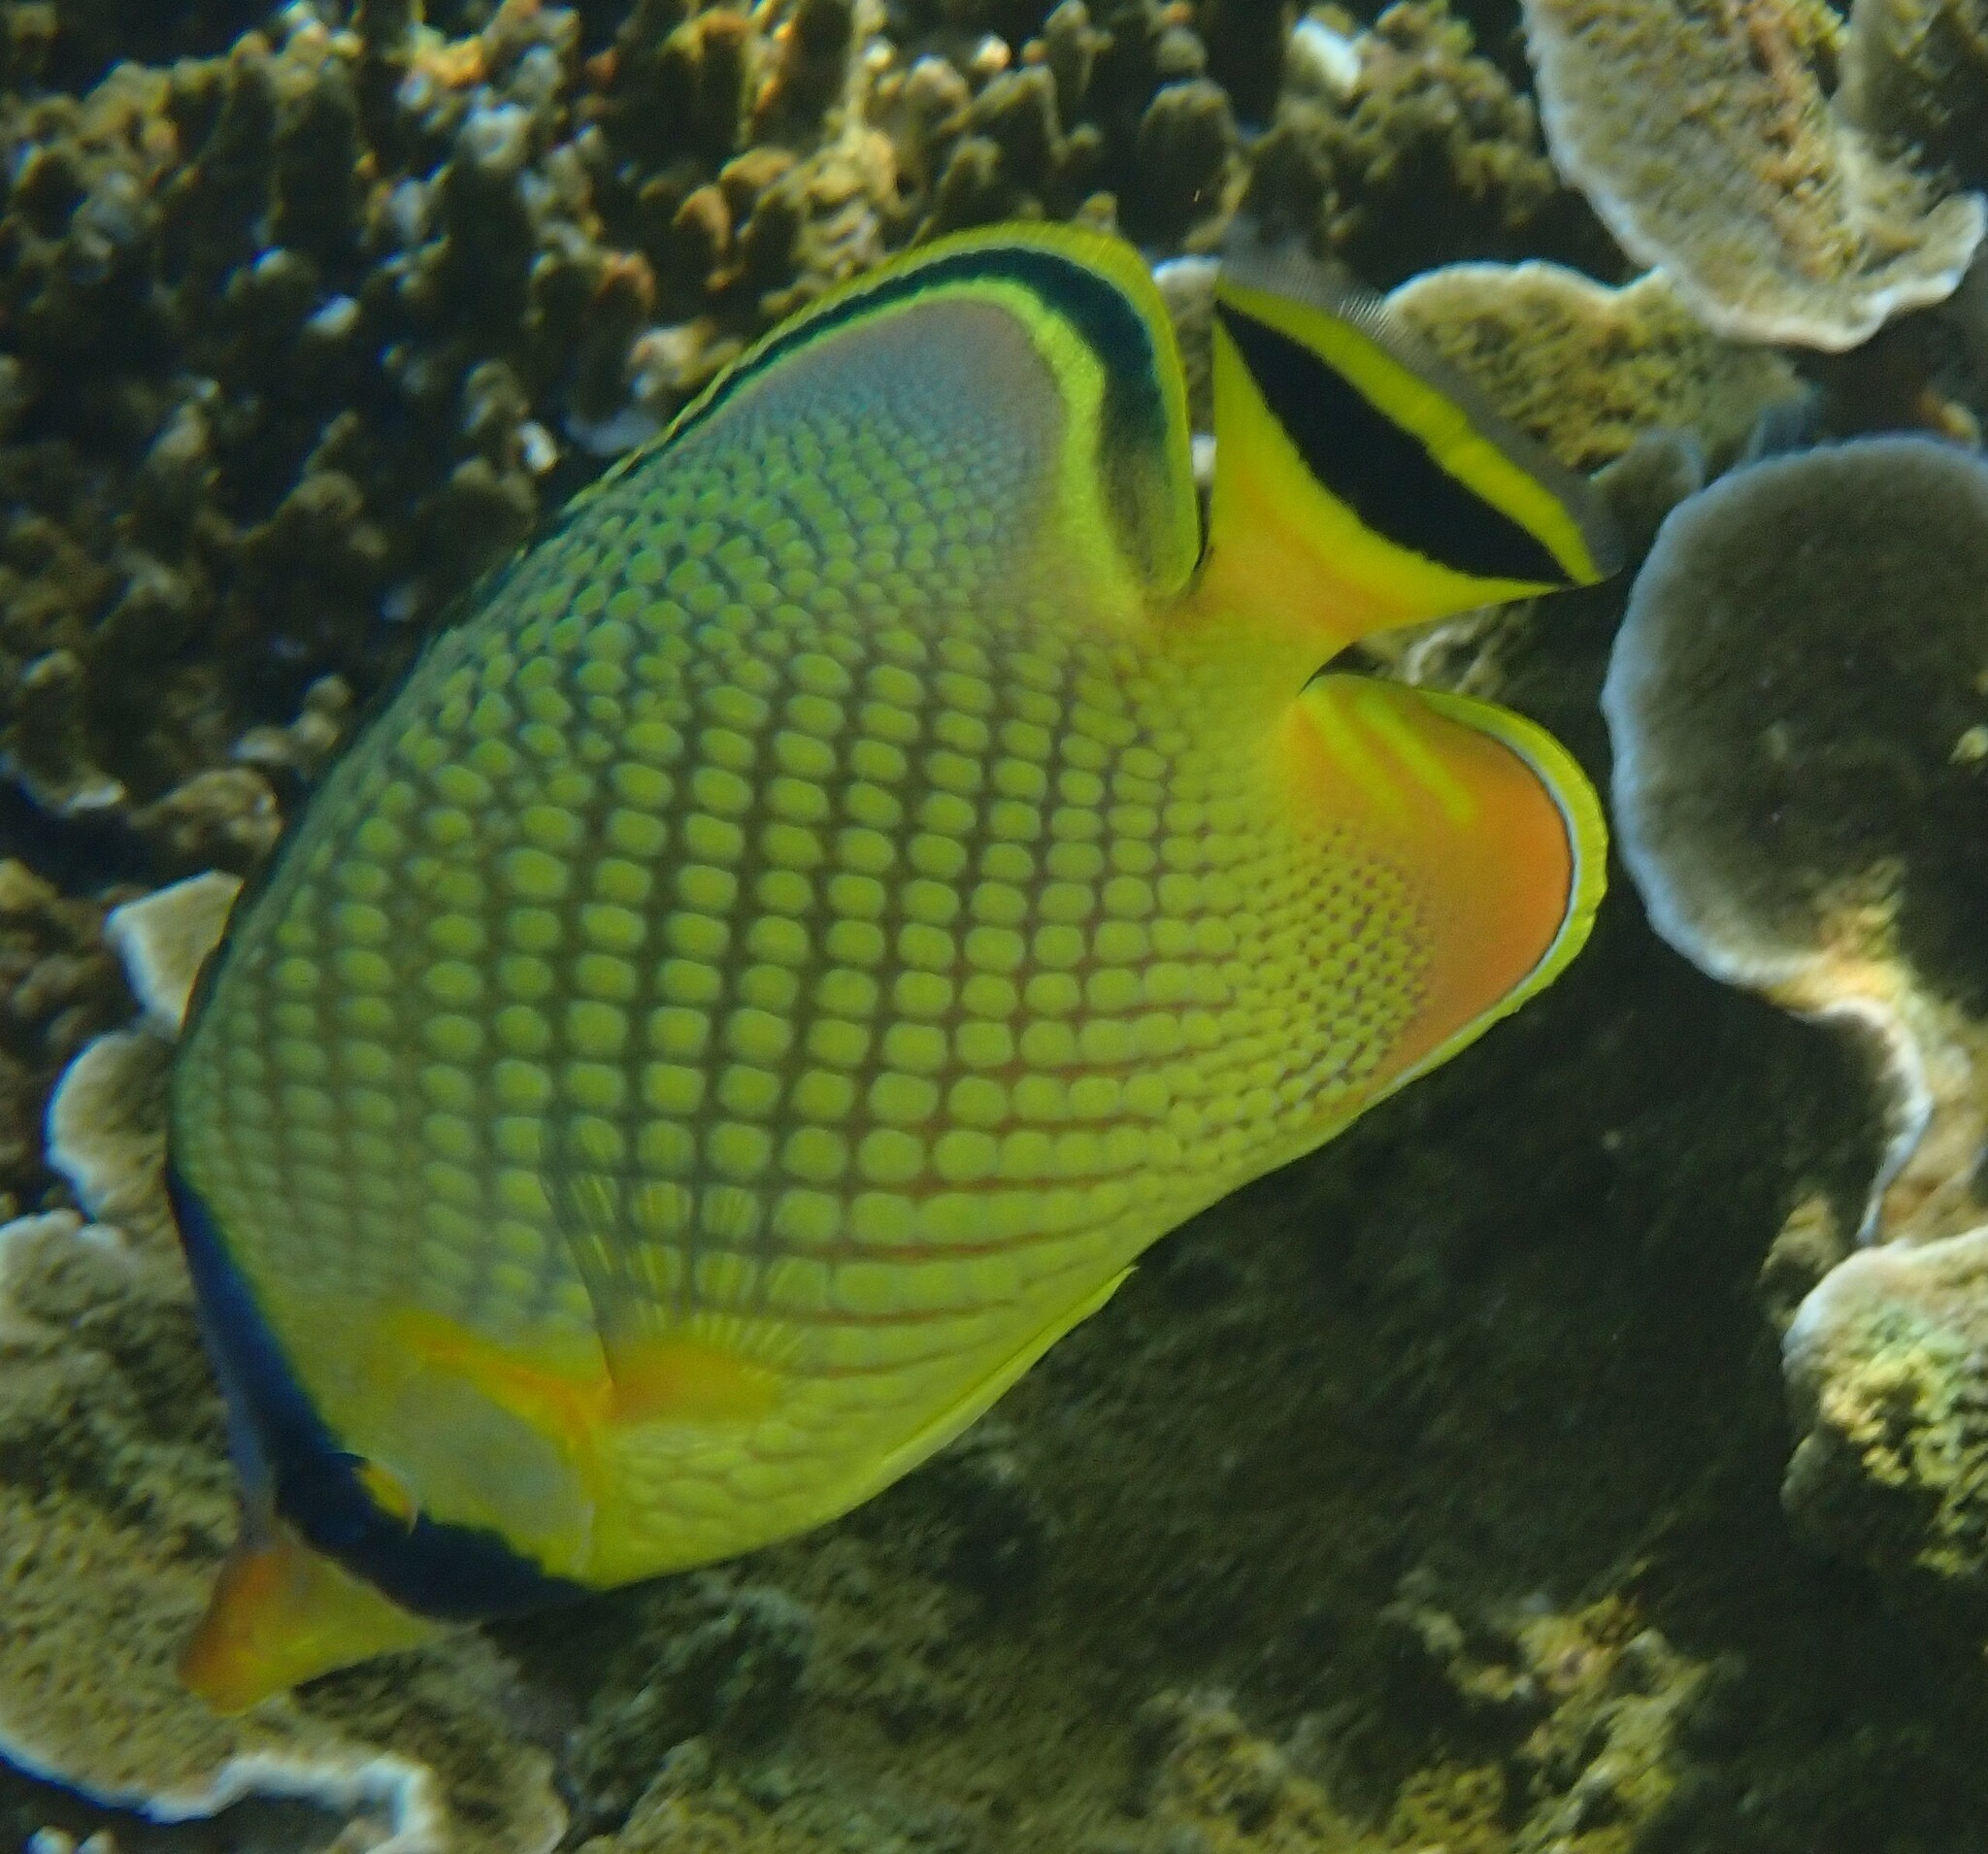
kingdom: Animalia
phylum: Chordata
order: Perciformes
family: Chaetodontidae
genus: Chaetodon
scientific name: Chaetodon rafflesii
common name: Latticed butterflyfish
